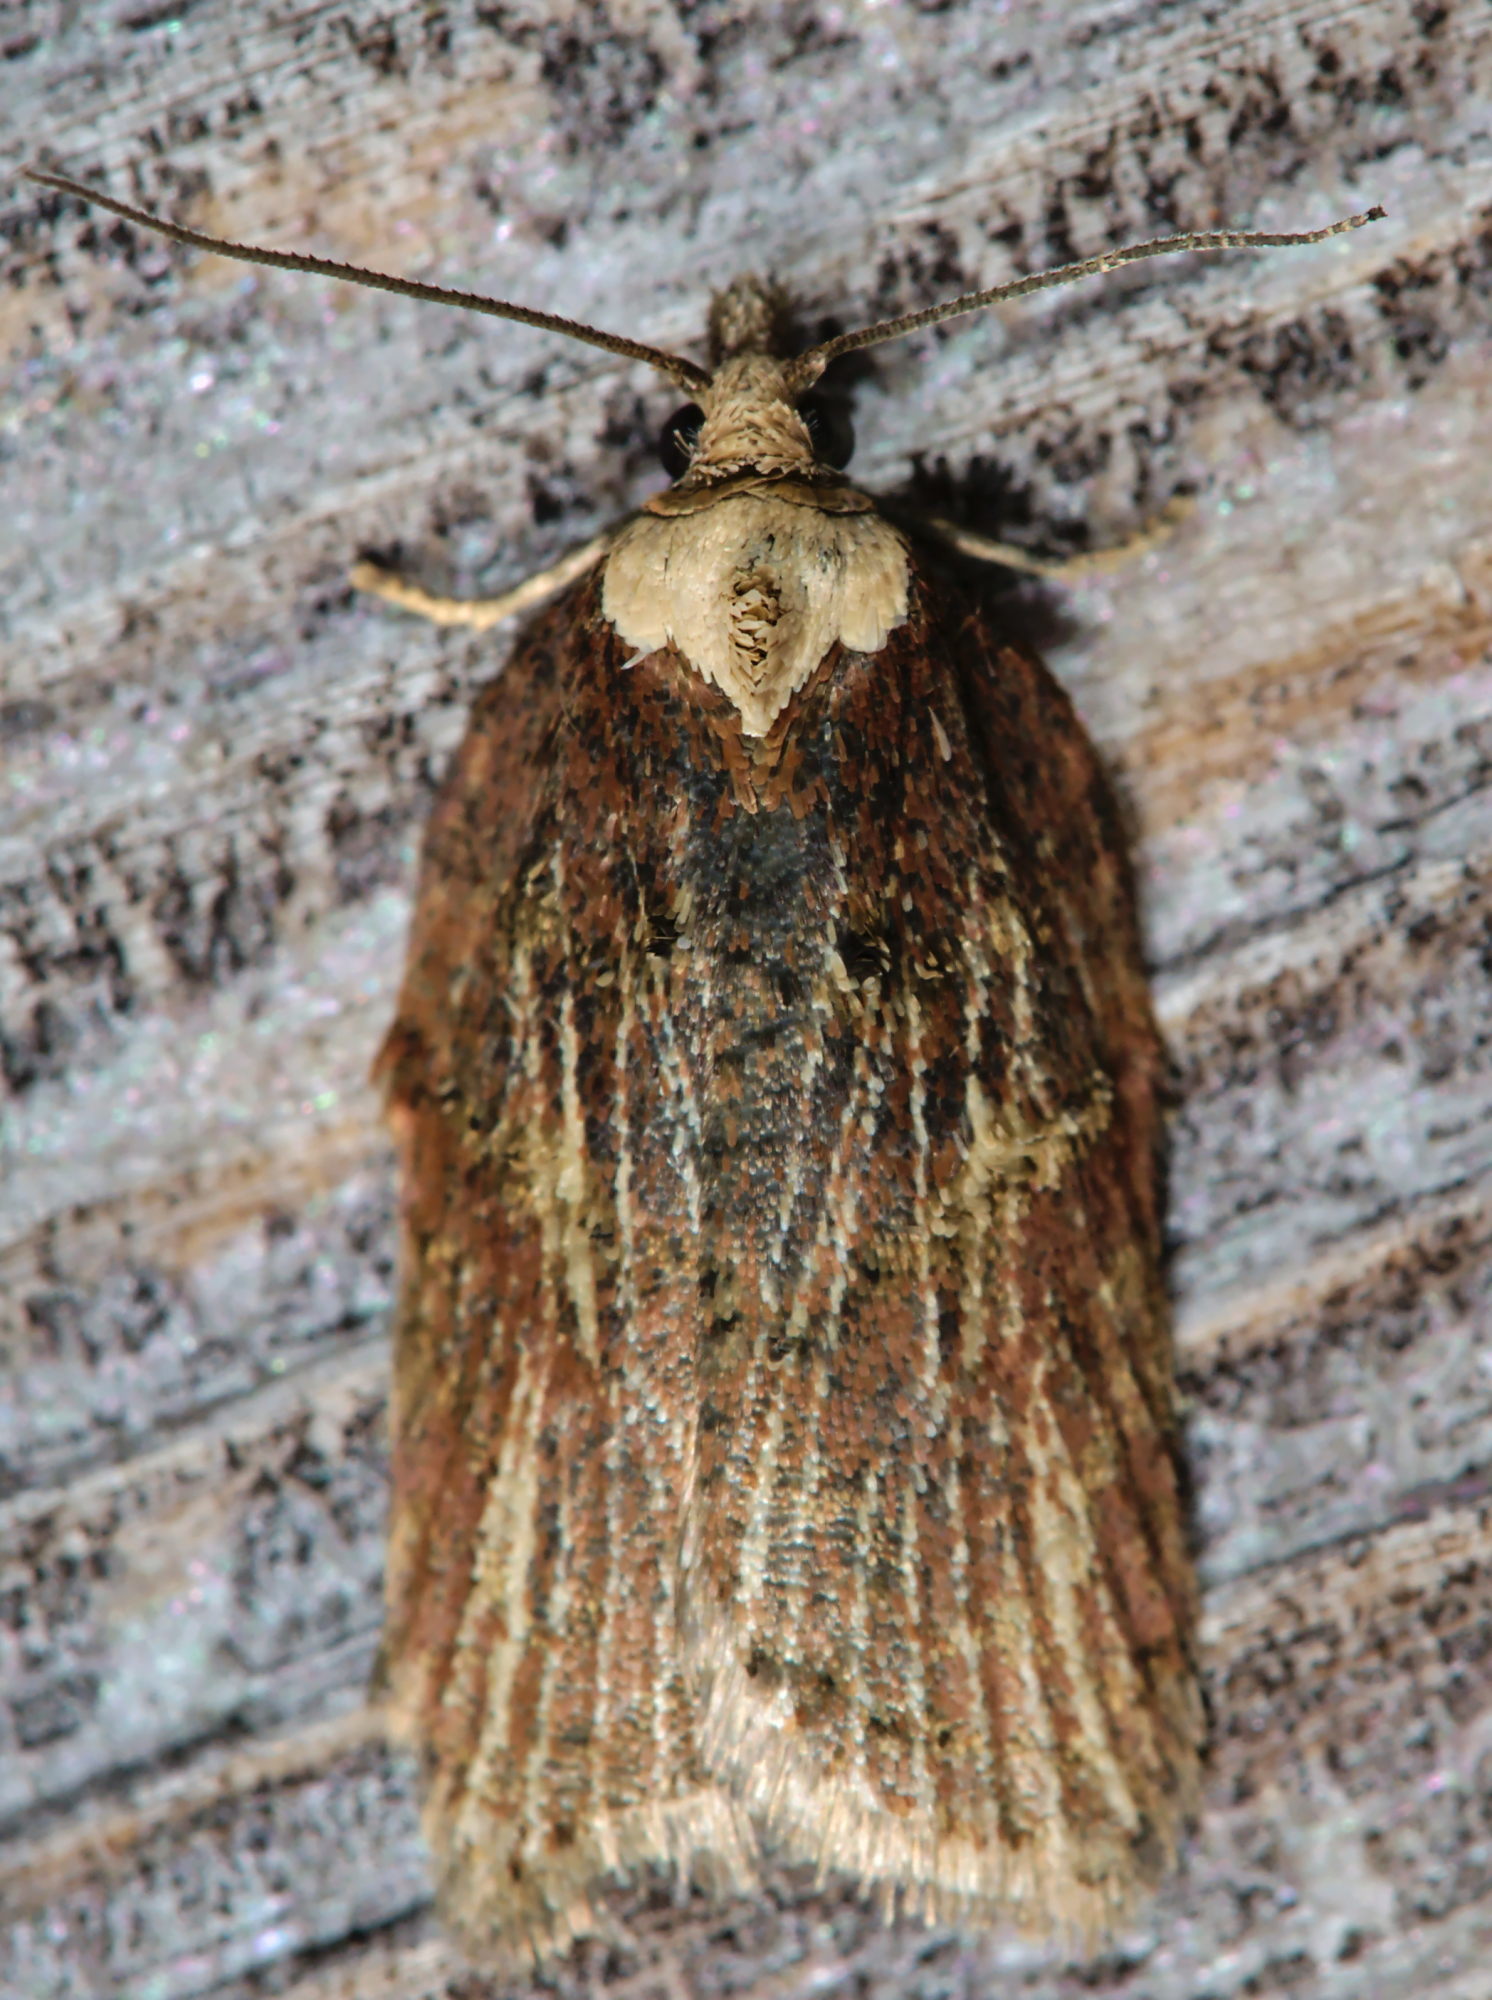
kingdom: Animalia
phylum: Arthropoda
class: Insecta
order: Lepidoptera
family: Tortricidae
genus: Acleris
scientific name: Acleris hastiana
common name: Sallow button
